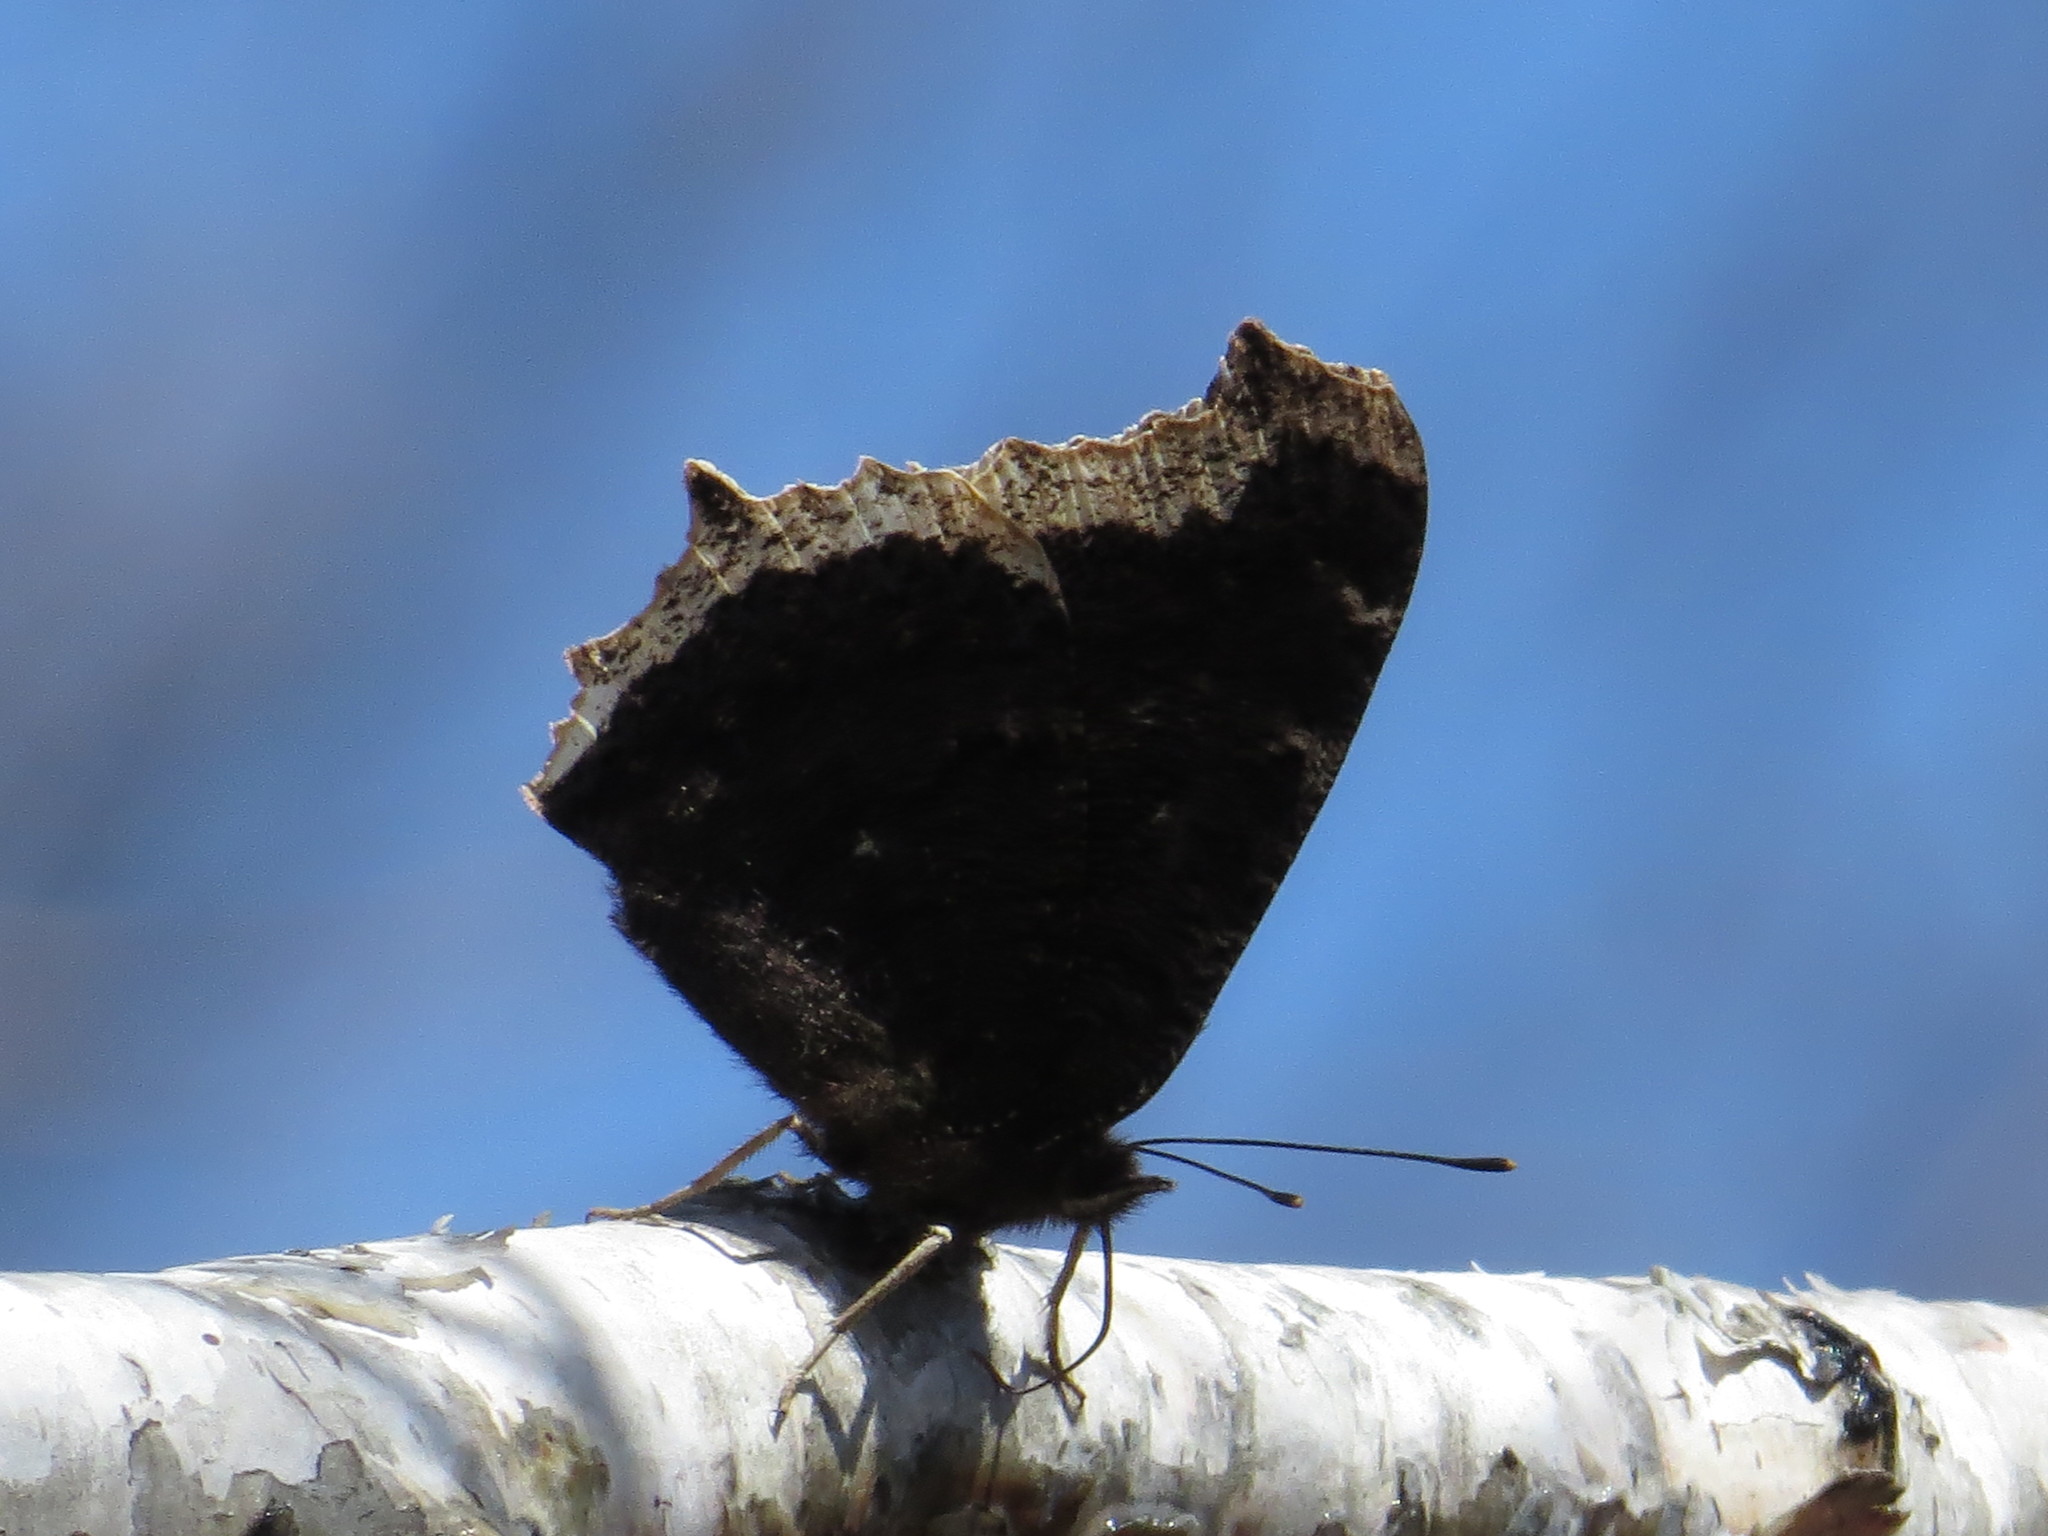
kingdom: Animalia
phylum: Arthropoda
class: Insecta
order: Lepidoptera
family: Nymphalidae
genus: Nymphalis
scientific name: Nymphalis antiopa
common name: Camberwell beauty
